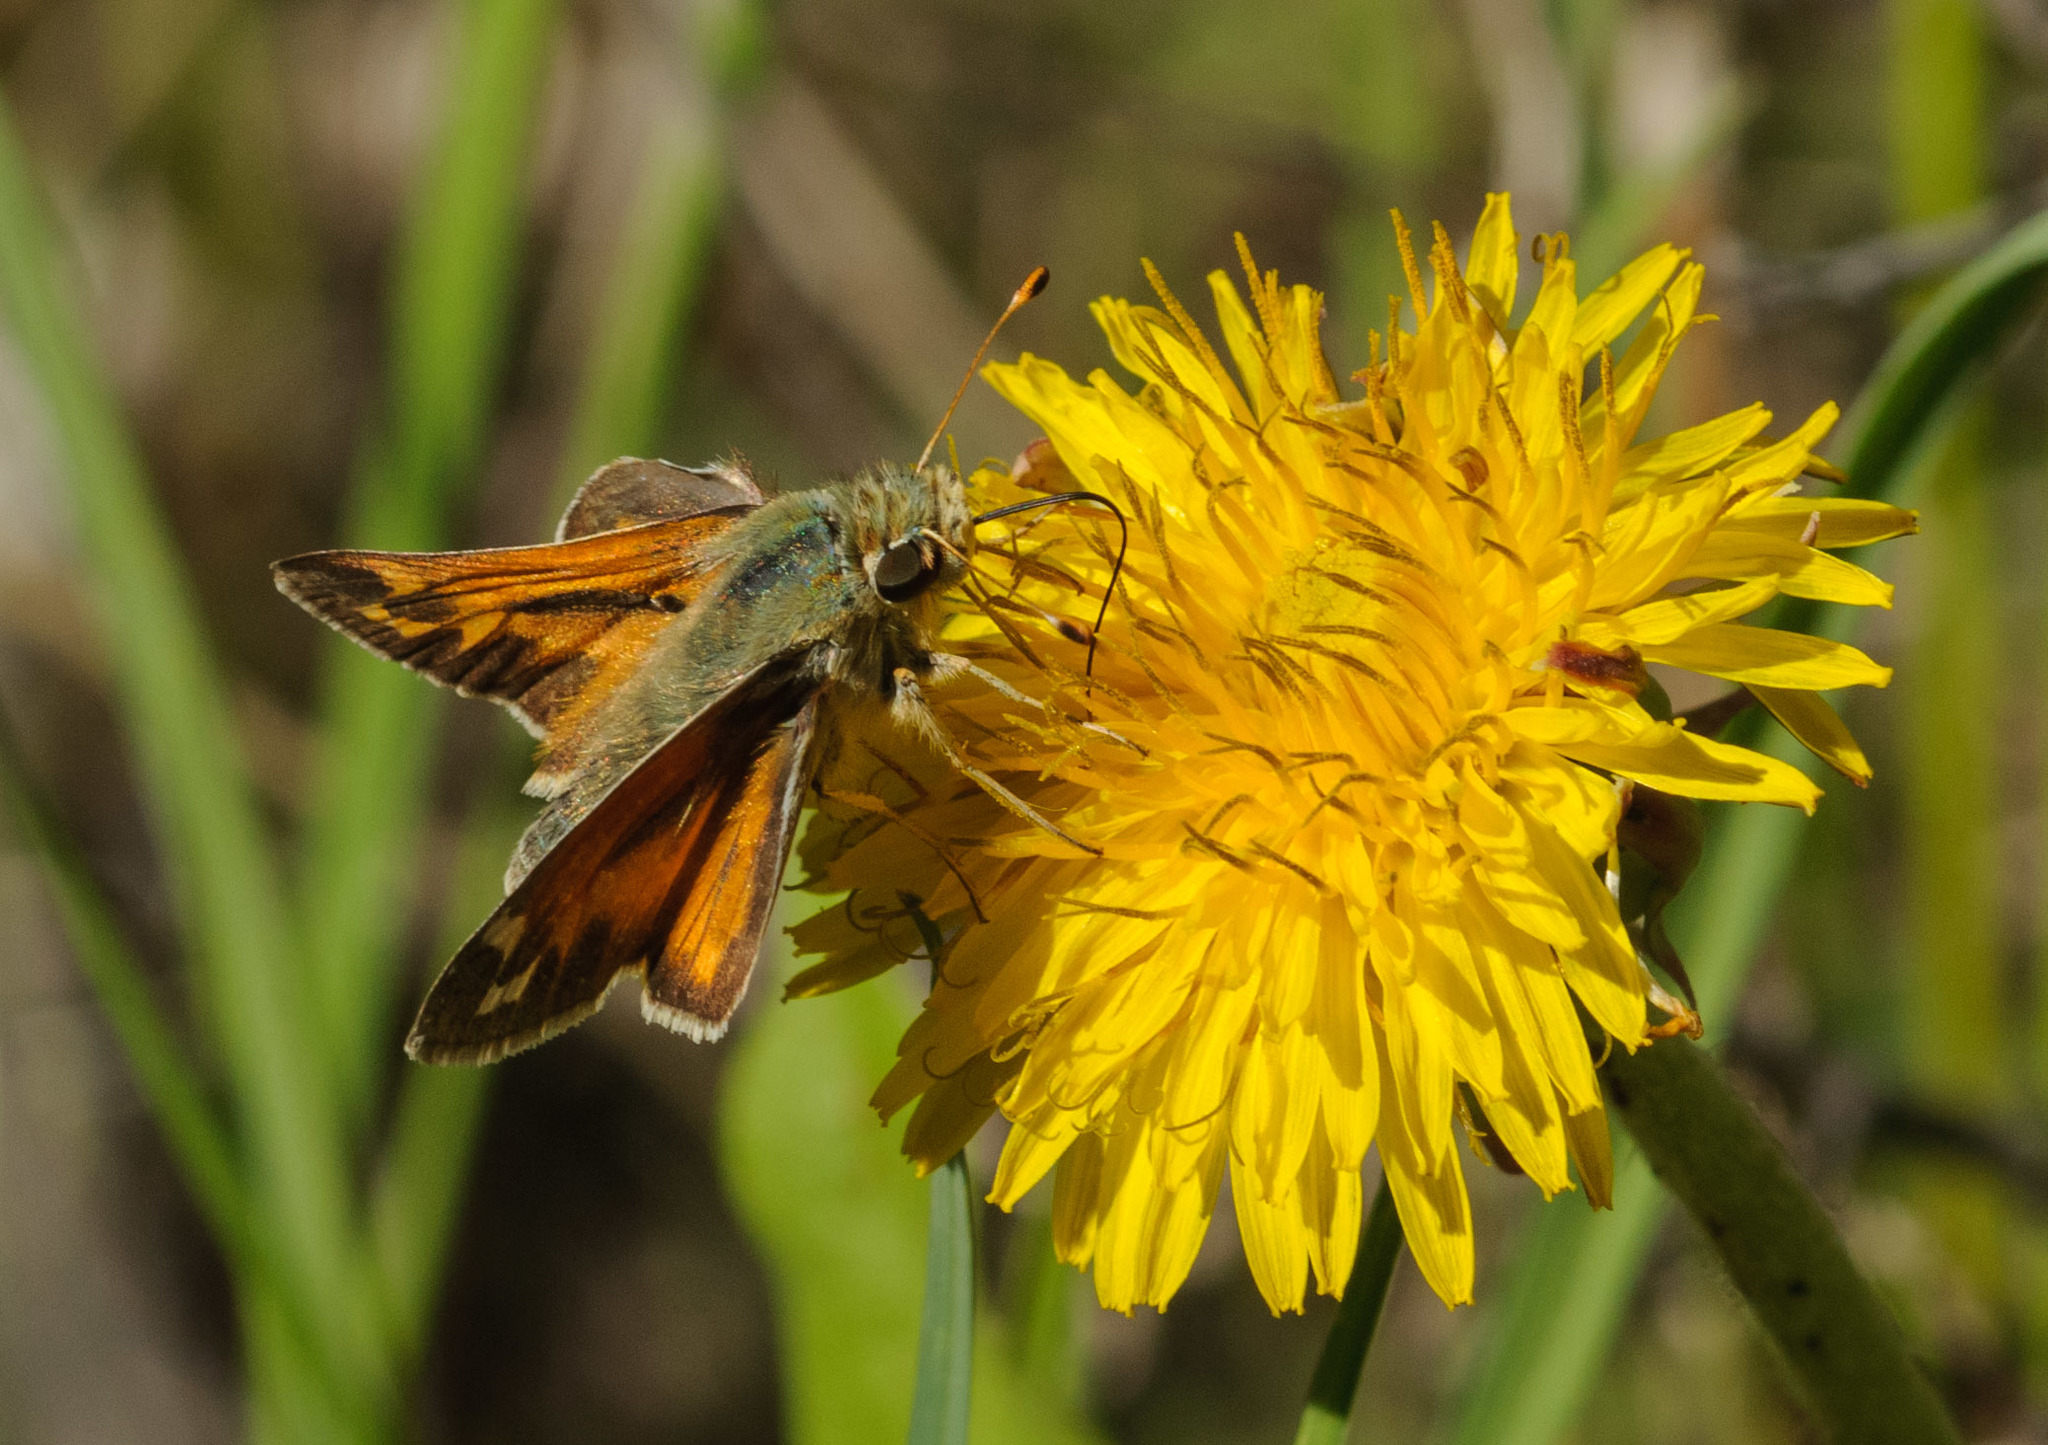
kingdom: Animalia
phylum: Arthropoda
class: Insecta
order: Lepidoptera
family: Hesperiidae
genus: Hesperia
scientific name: Hesperia juba
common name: Juba skipper
